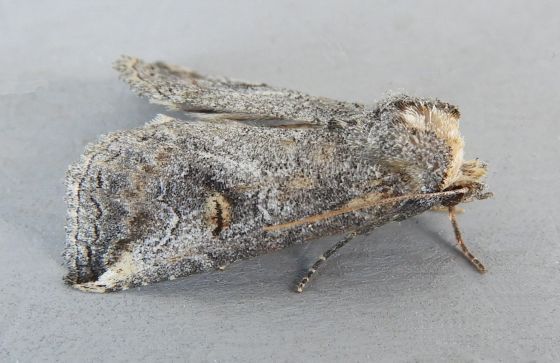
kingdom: Animalia
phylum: Arthropoda
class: Insecta
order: Lepidoptera
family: Notodontidae
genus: Elasmia
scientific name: Elasmia packardii
